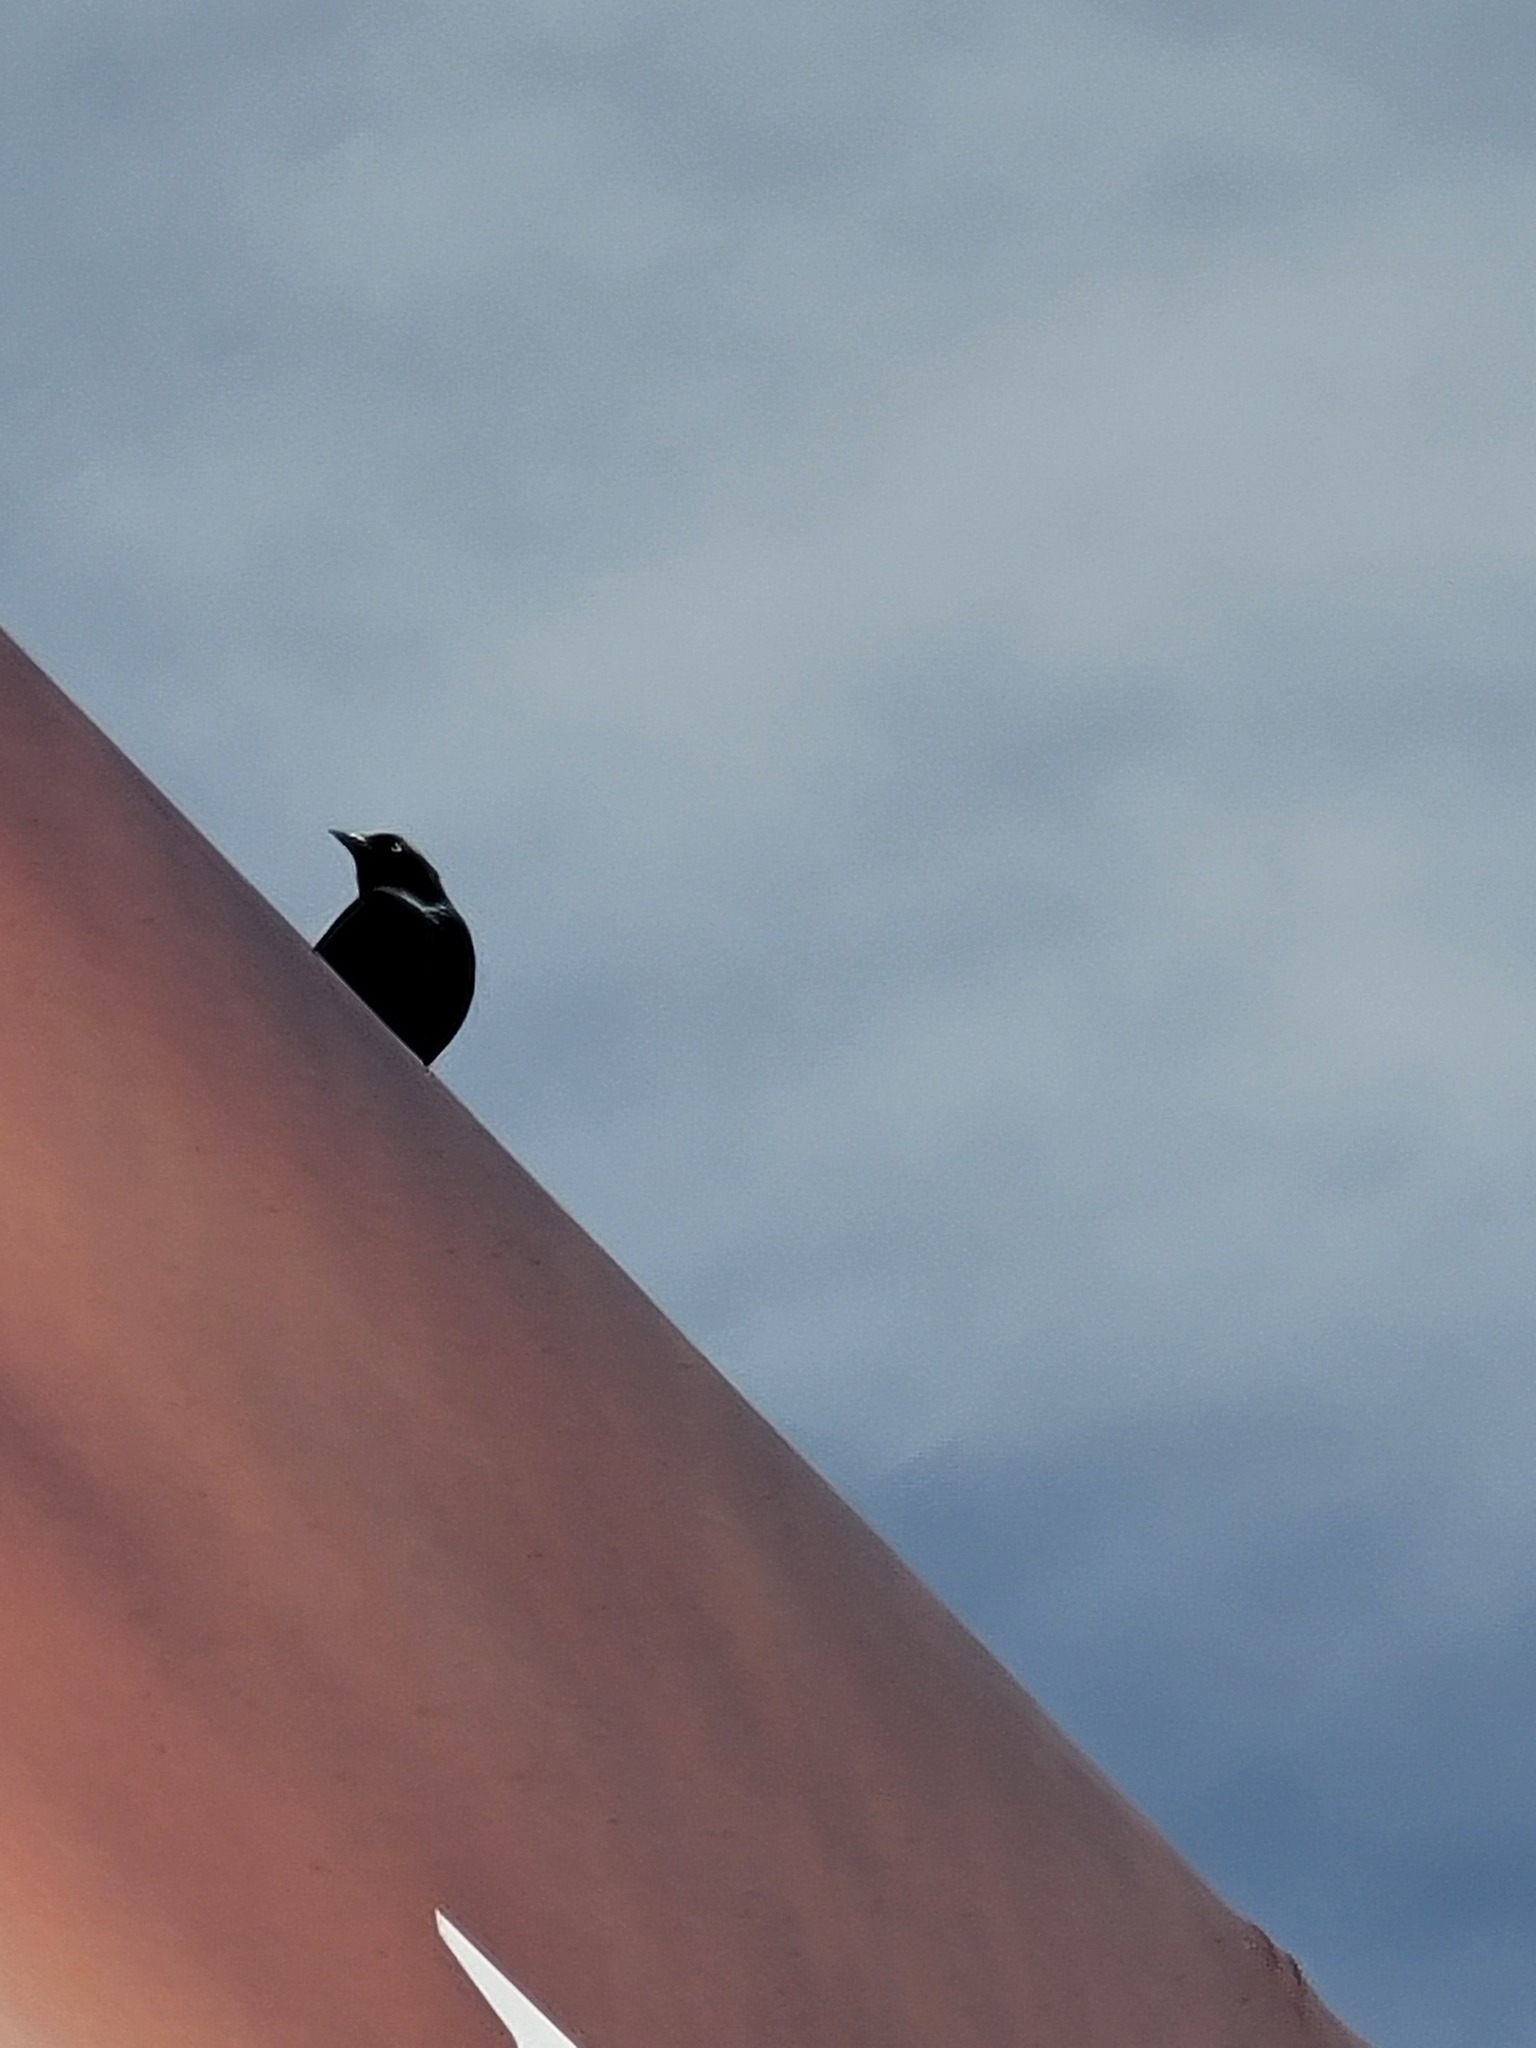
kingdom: Animalia
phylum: Chordata
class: Aves
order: Passeriformes
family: Icteridae
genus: Euphagus
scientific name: Euphagus cyanocephalus
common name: Brewer's blackbird
